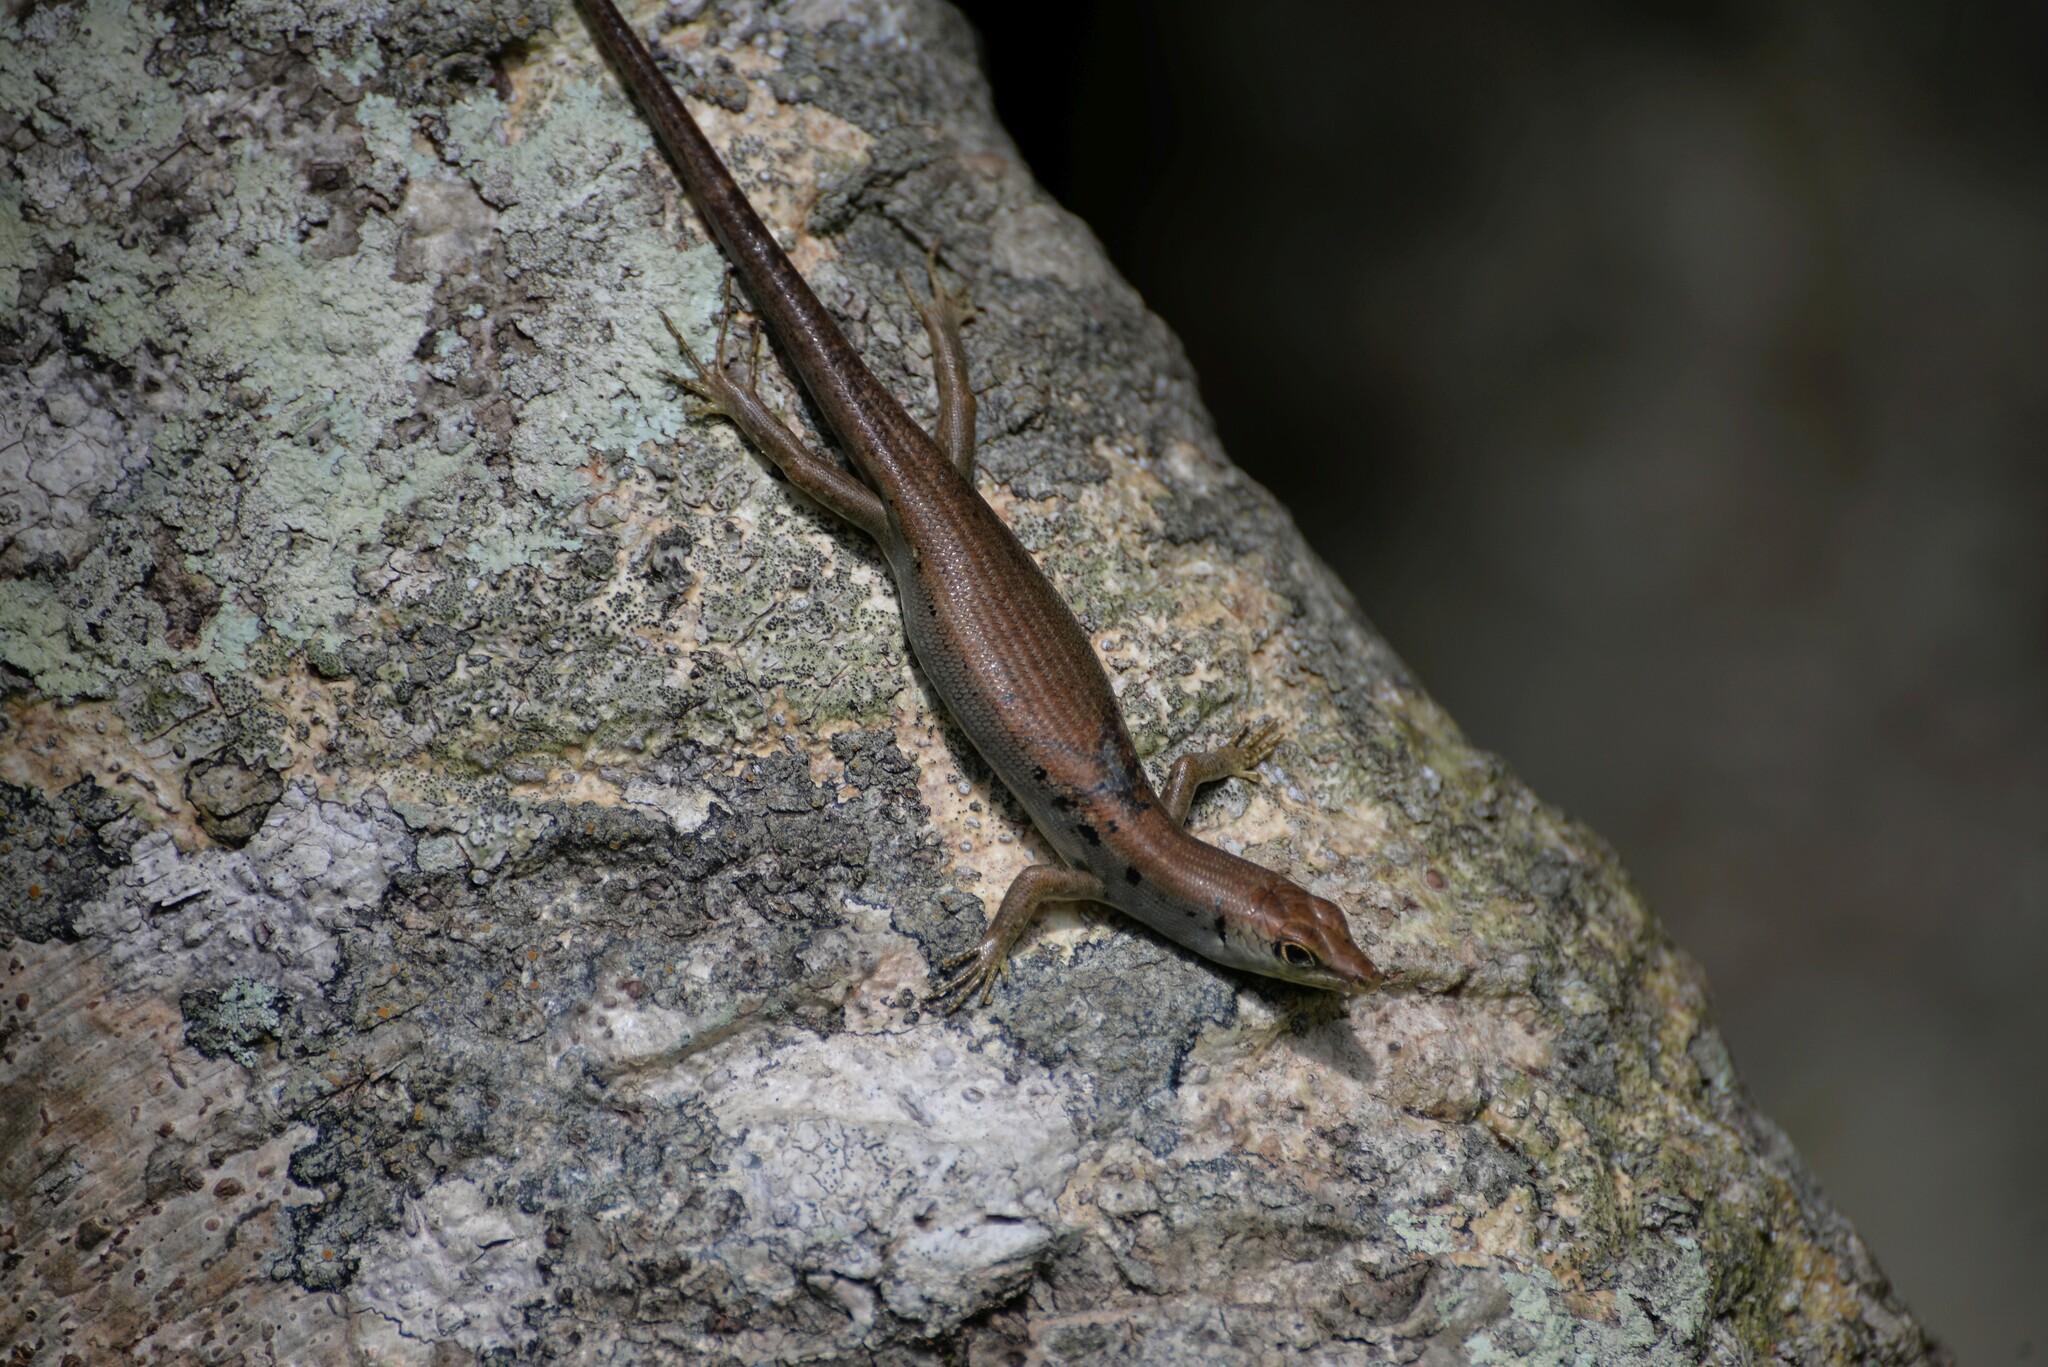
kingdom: Animalia
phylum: Chordata
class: Squamata
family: Scincidae
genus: Emoia
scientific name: Emoia aneityumensis
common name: Medway's emo skink
